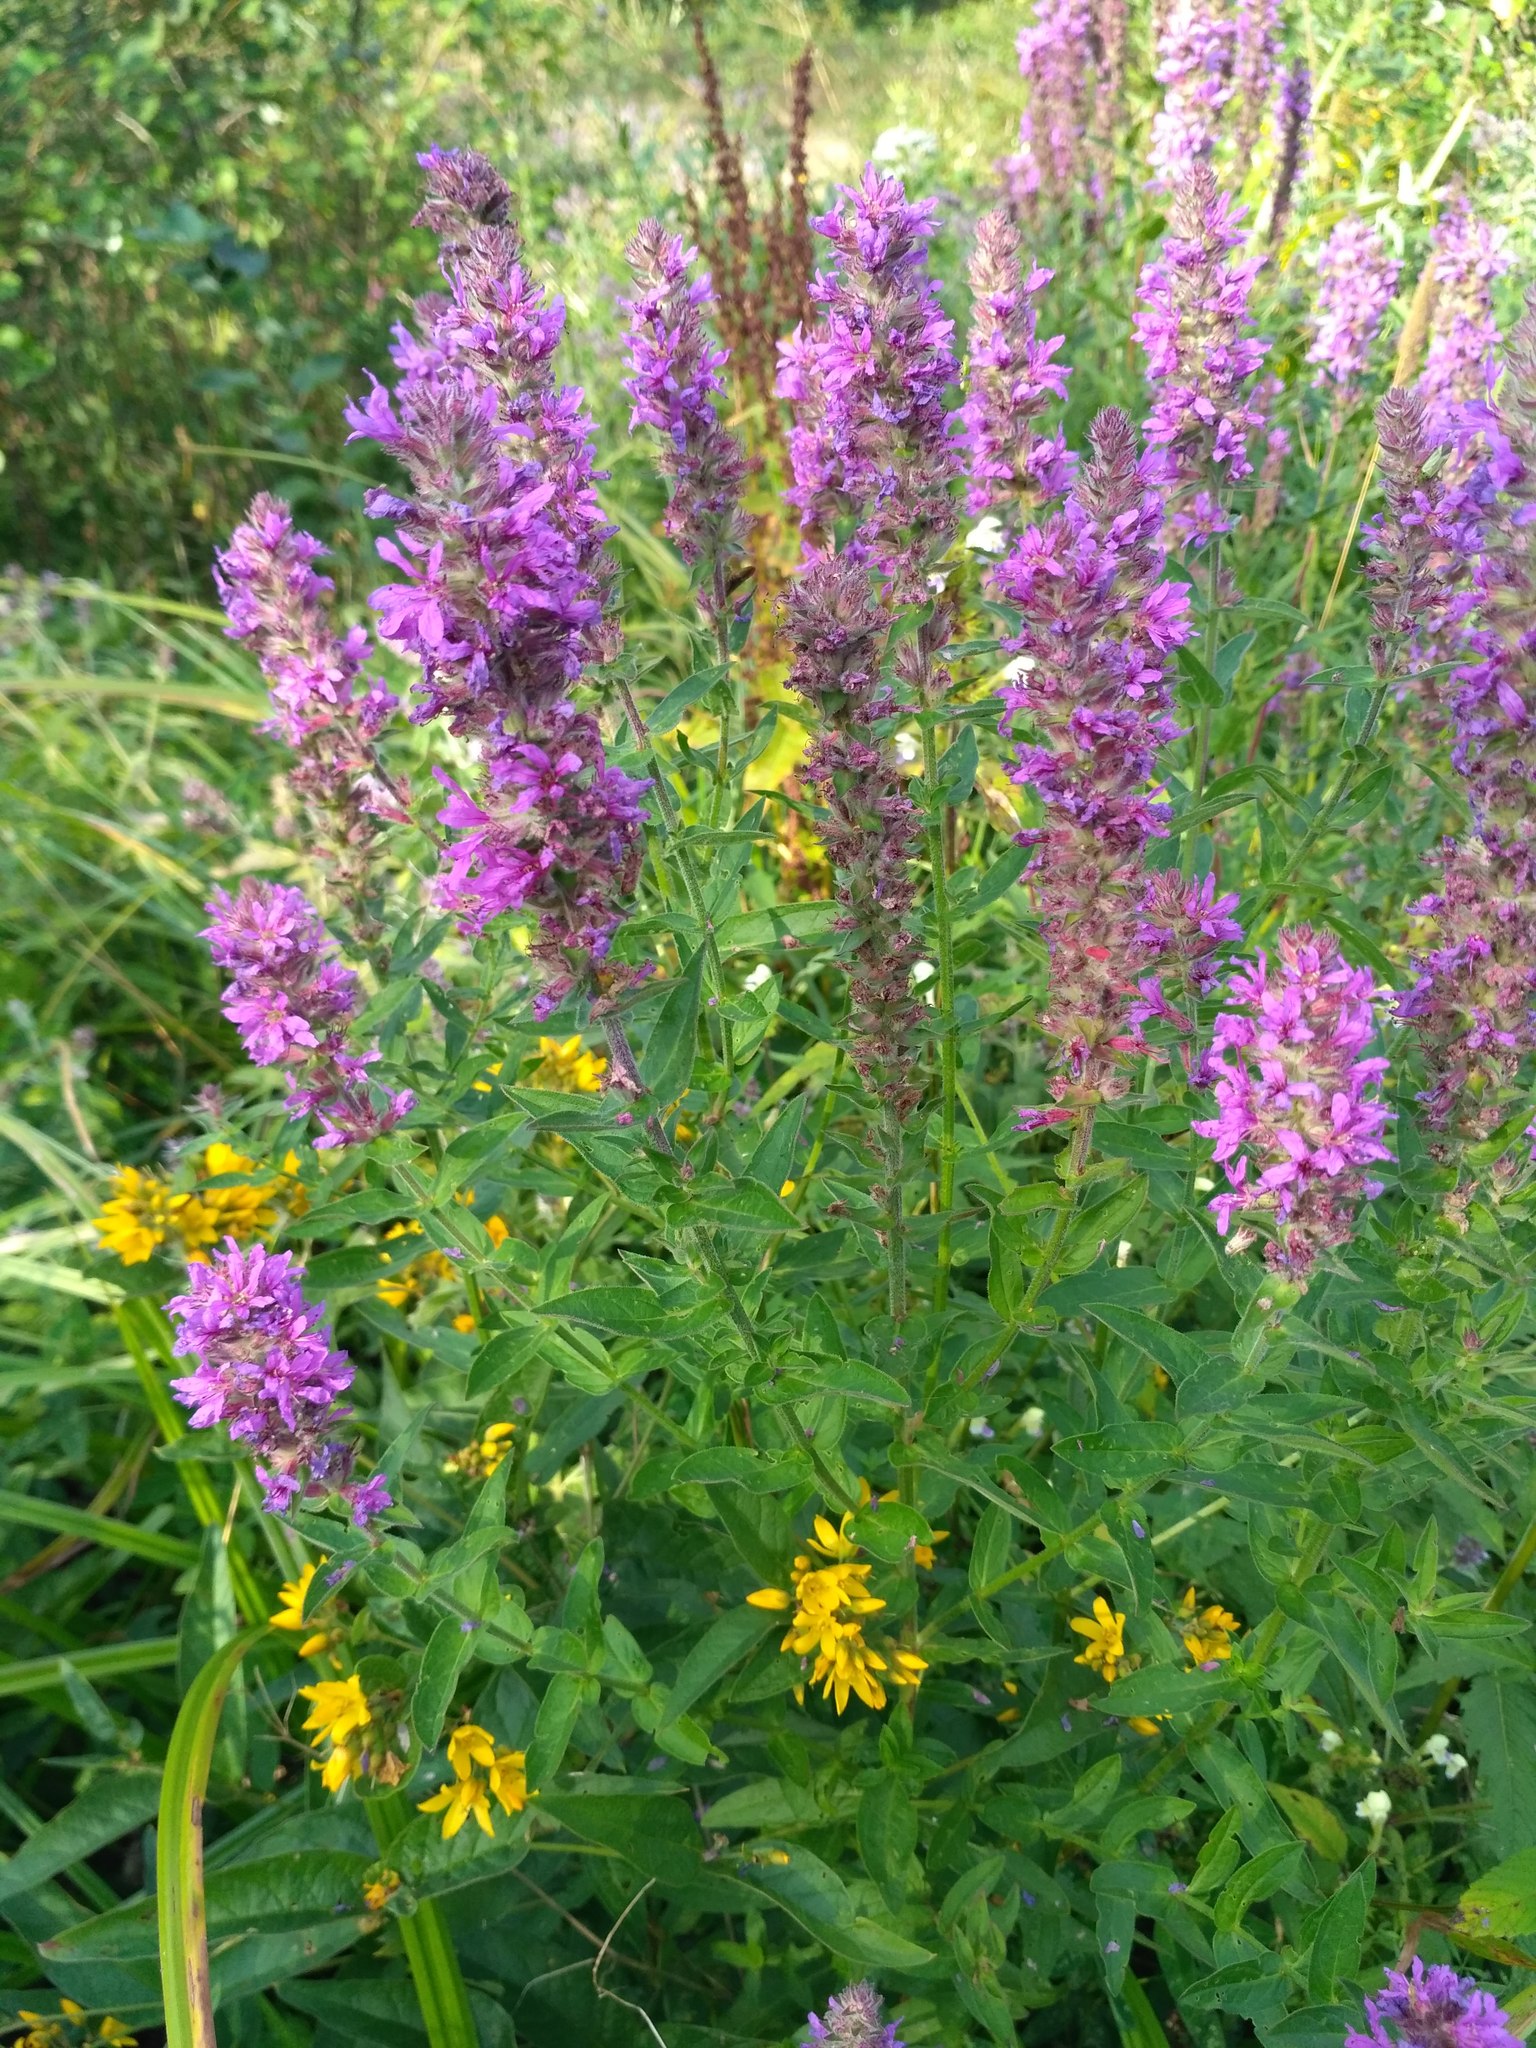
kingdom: Plantae
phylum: Tracheophyta
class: Magnoliopsida
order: Myrtales
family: Lythraceae
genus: Lythrum
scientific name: Lythrum salicaria
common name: Purple loosestrife
